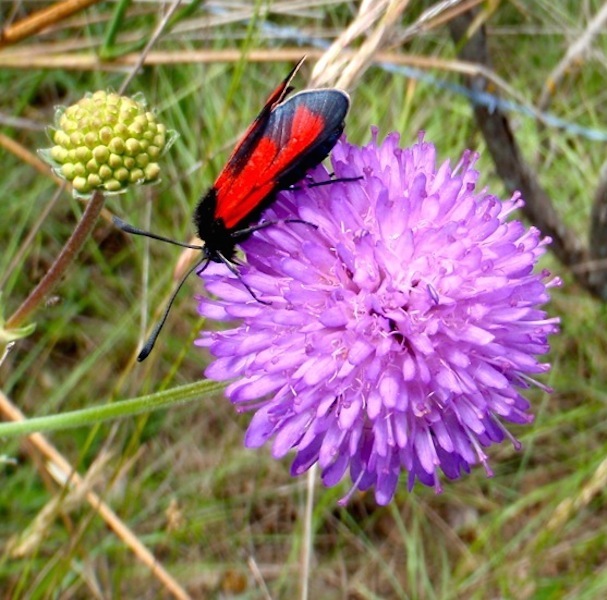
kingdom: Animalia
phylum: Arthropoda
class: Insecta
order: Lepidoptera
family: Zygaenidae
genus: Zygaena
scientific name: Zygaena erythrus
